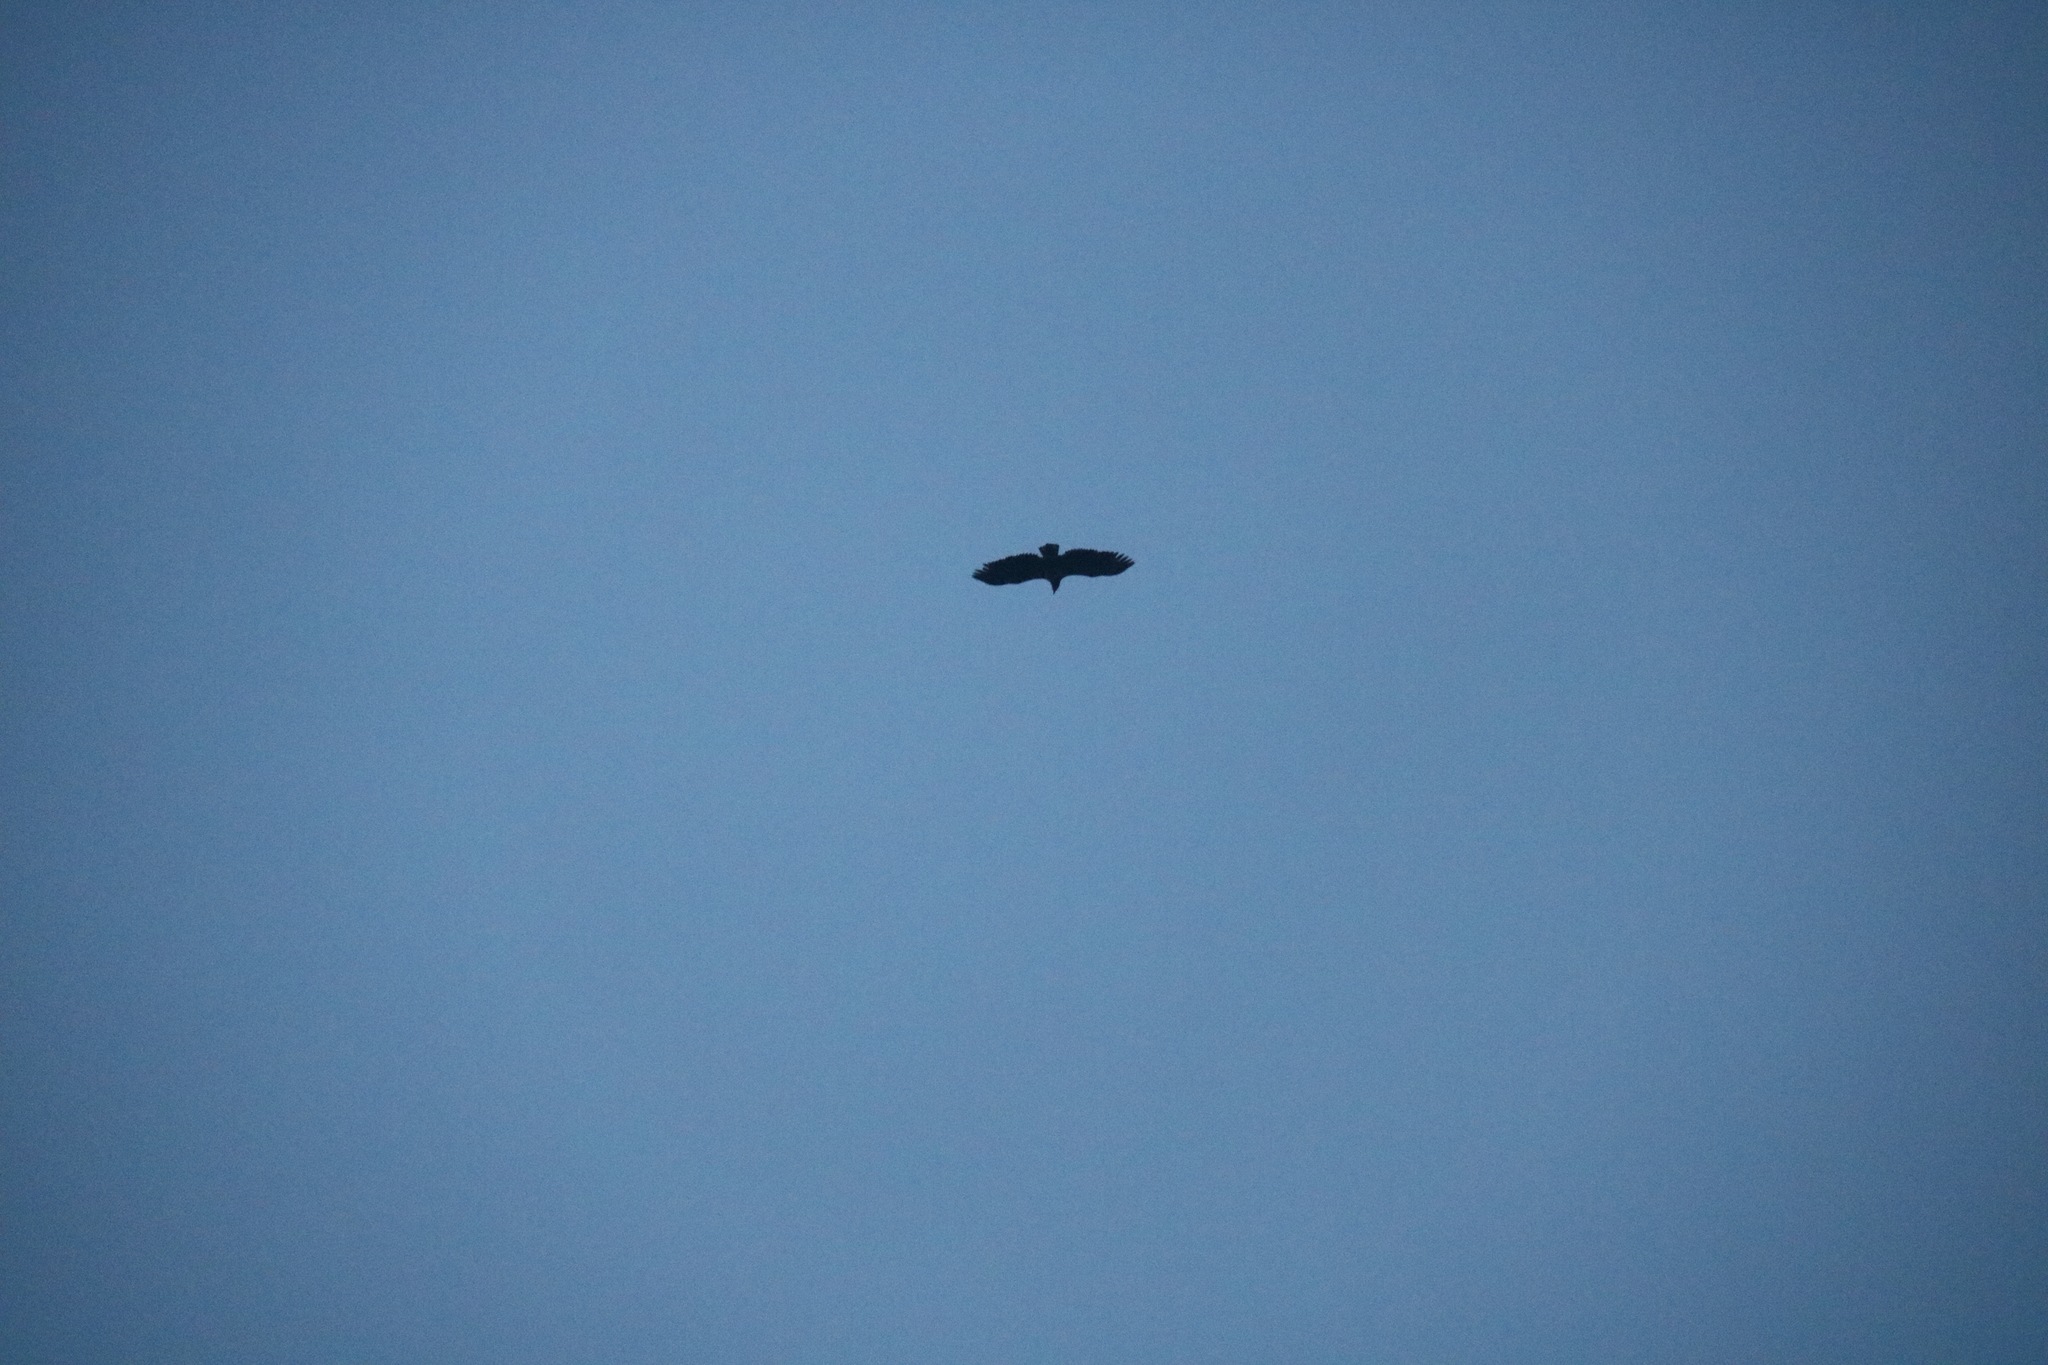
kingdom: Animalia
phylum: Chordata
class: Aves
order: Accipitriformes
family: Accipitridae
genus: Haliaeetus
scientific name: Haliaeetus albicilla
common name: White-tailed eagle
